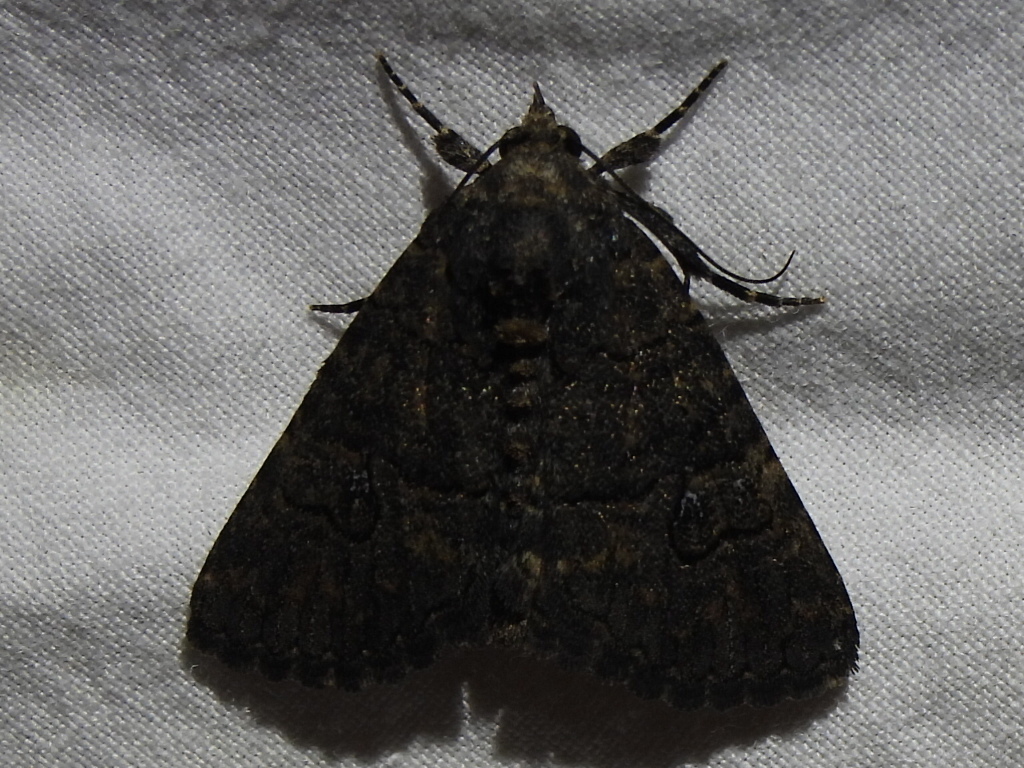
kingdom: Animalia
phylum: Arthropoda
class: Insecta
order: Lepidoptera
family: Erebidae
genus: Elousa
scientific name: Elousa mima
